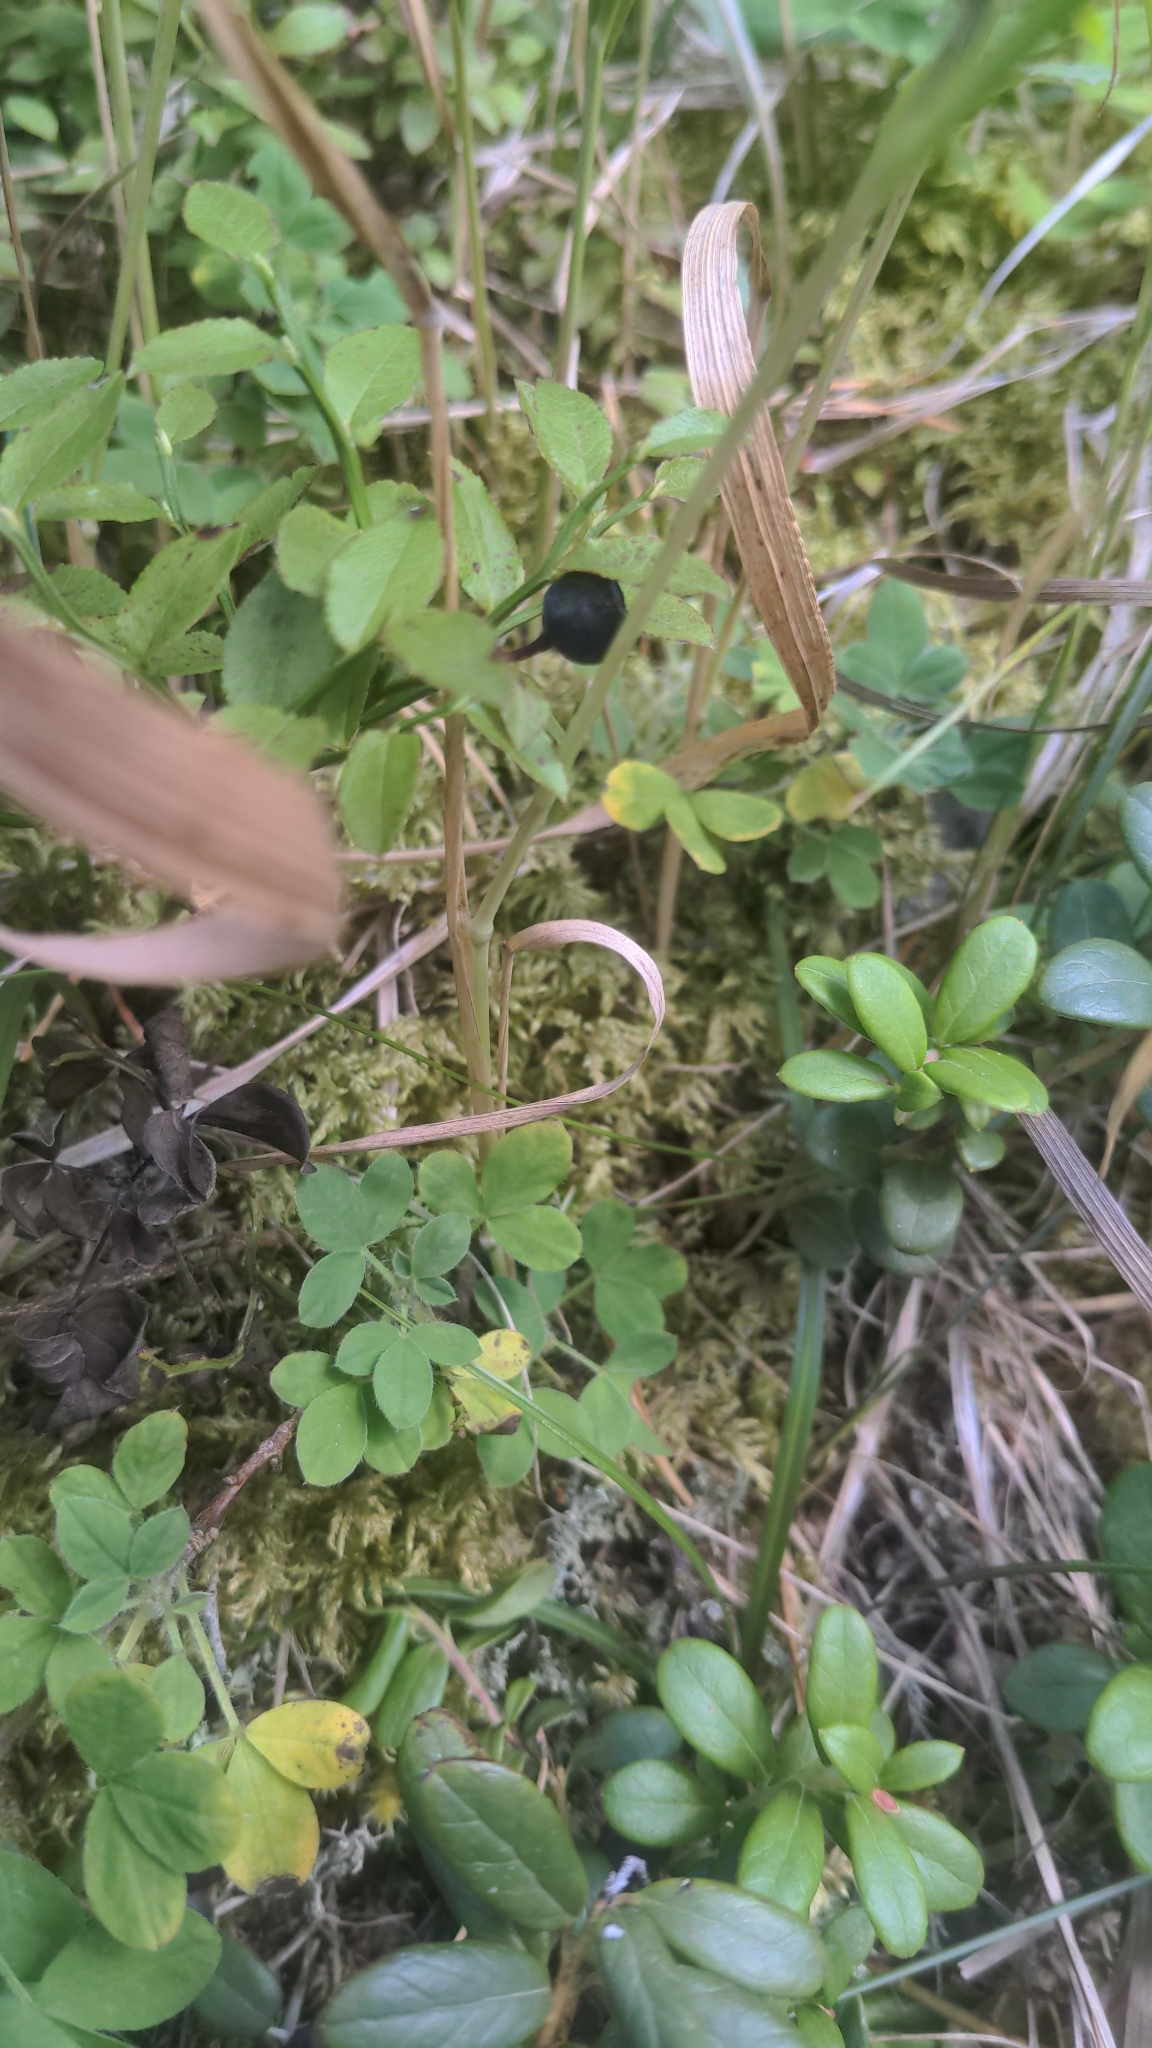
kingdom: Plantae
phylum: Tracheophyta
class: Magnoliopsida
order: Ericales
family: Ericaceae
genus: Vaccinium
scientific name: Vaccinium myrtillus
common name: Bilberry
